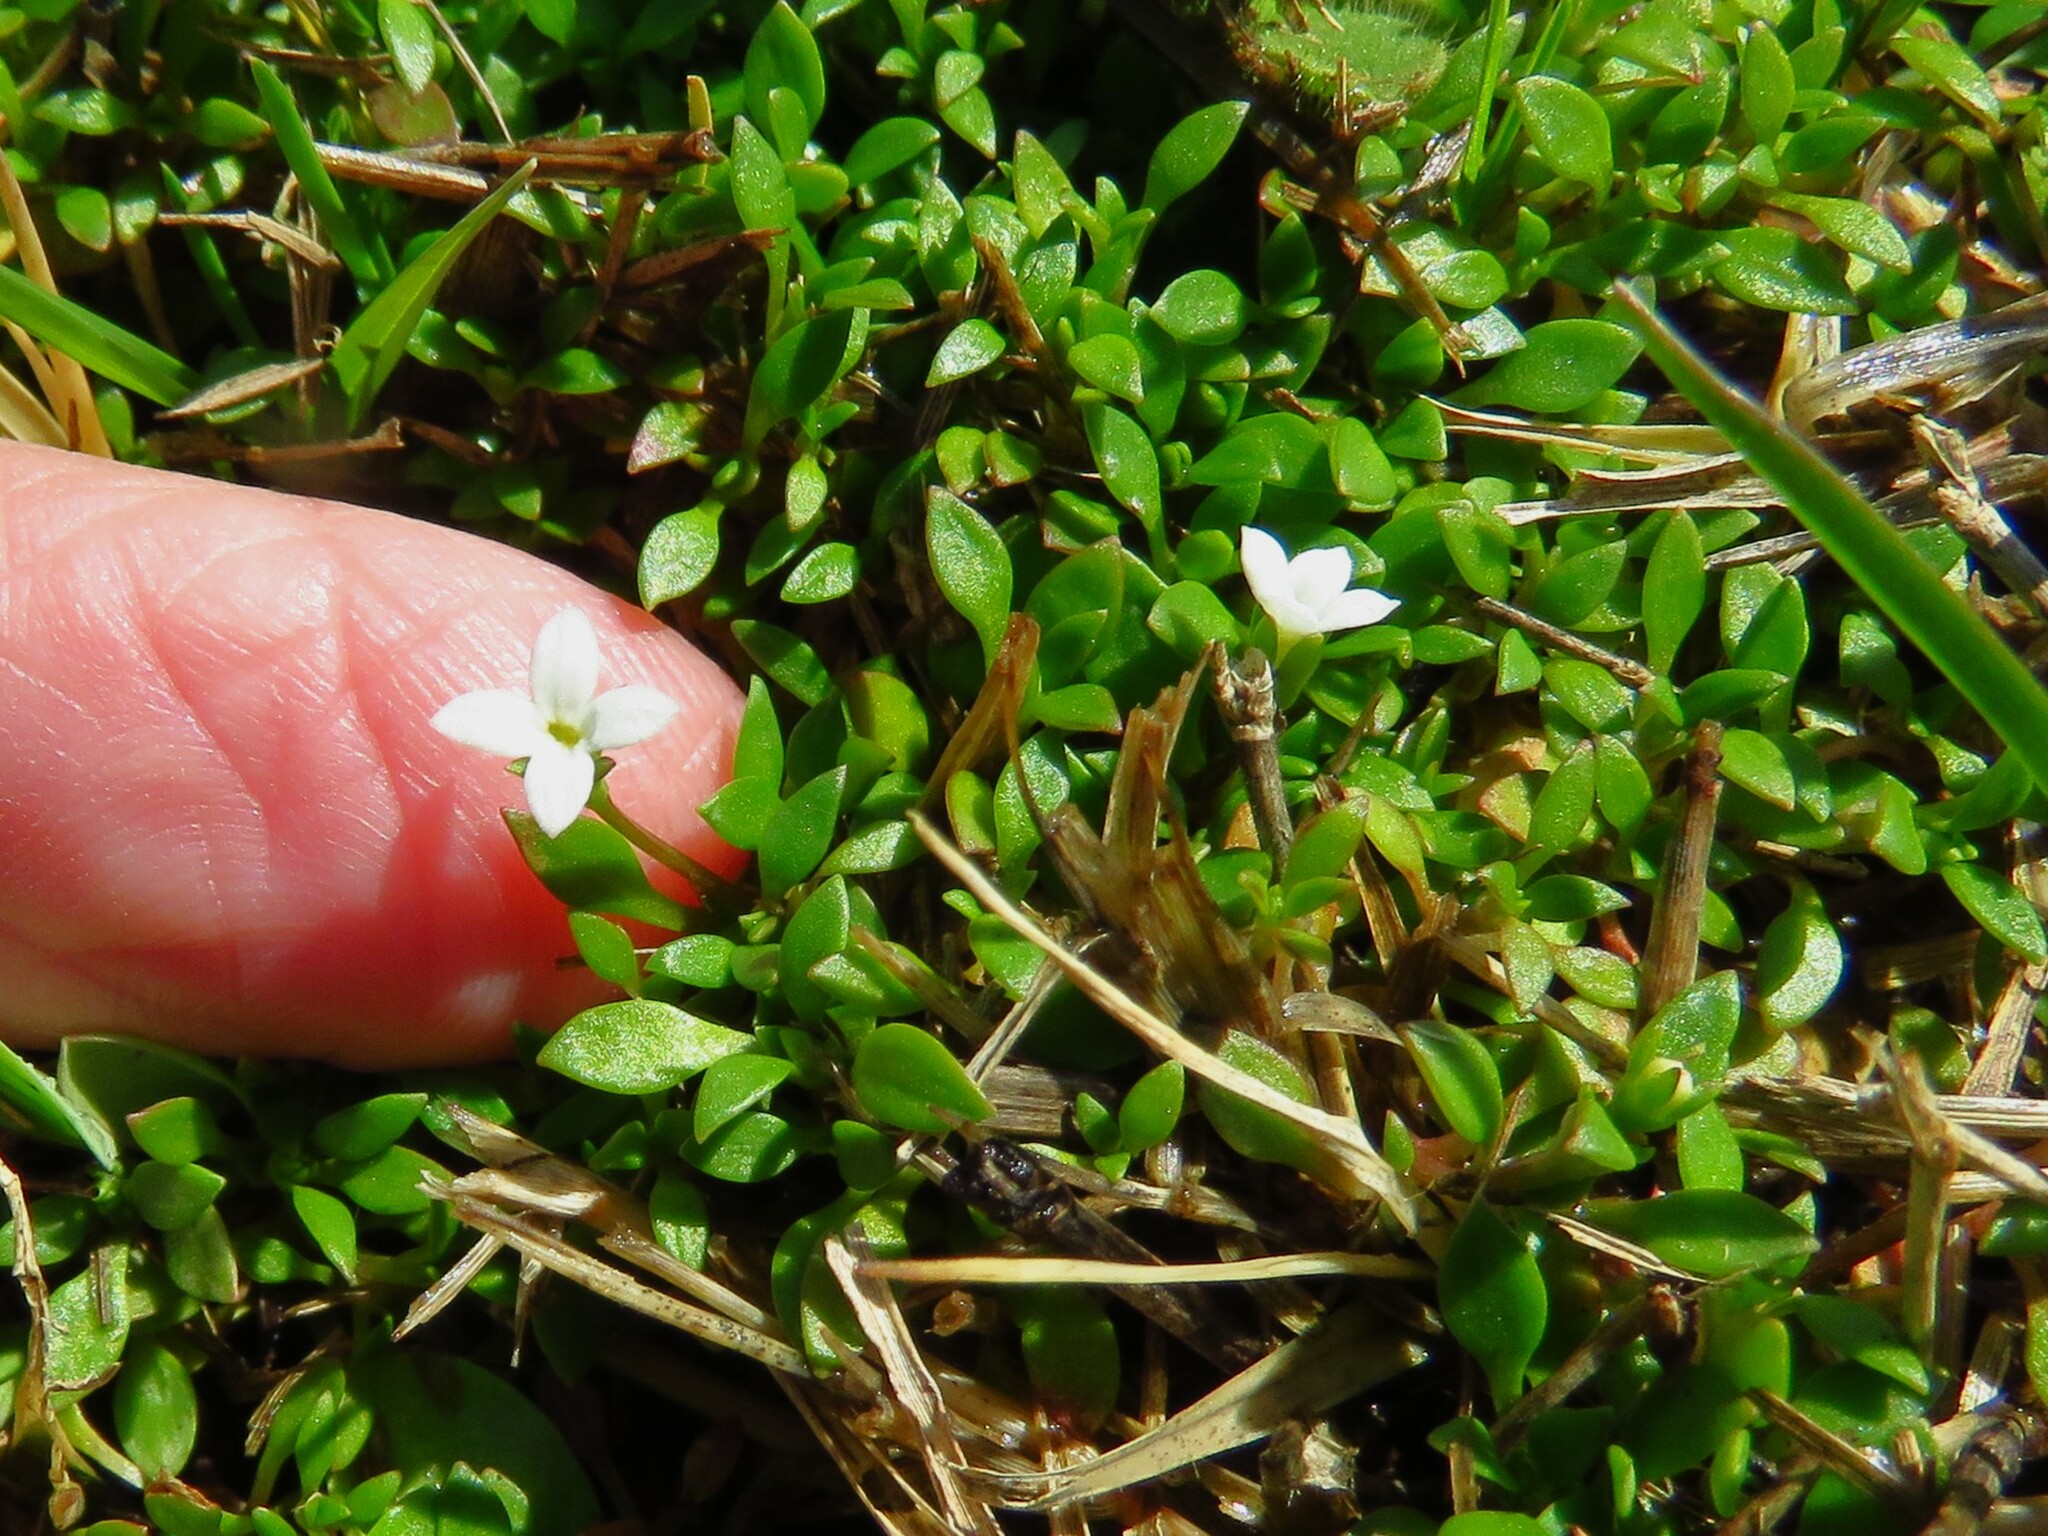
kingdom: Plantae
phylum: Tracheophyta
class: Magnoliopsida
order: Gentianales
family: Rubiaceae
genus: Houstonia
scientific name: Houstonia micrantha
